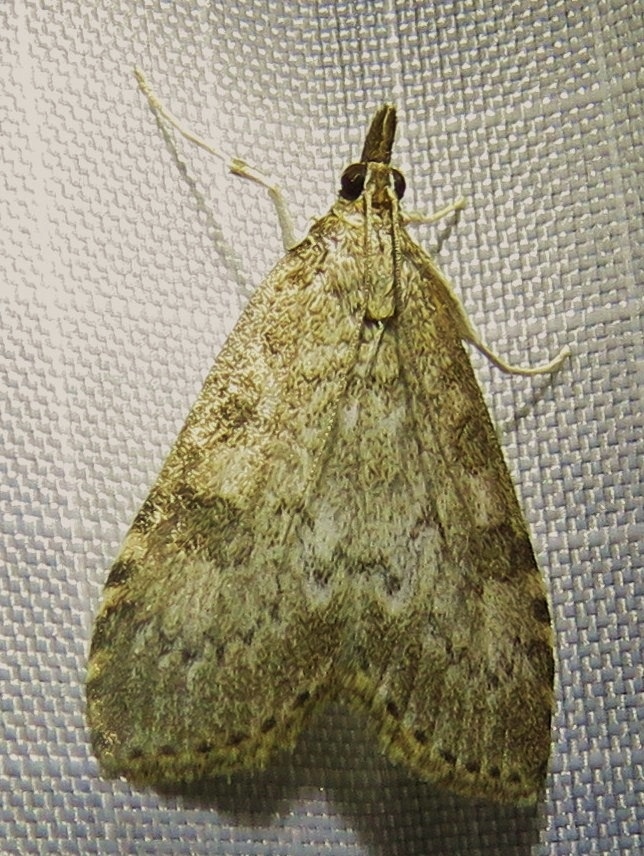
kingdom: Animalia
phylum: Arthropoda
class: Insecta
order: Lepidoptera
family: Crambidae
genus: Udea
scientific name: Udea prunalis
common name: Dusky pearl
